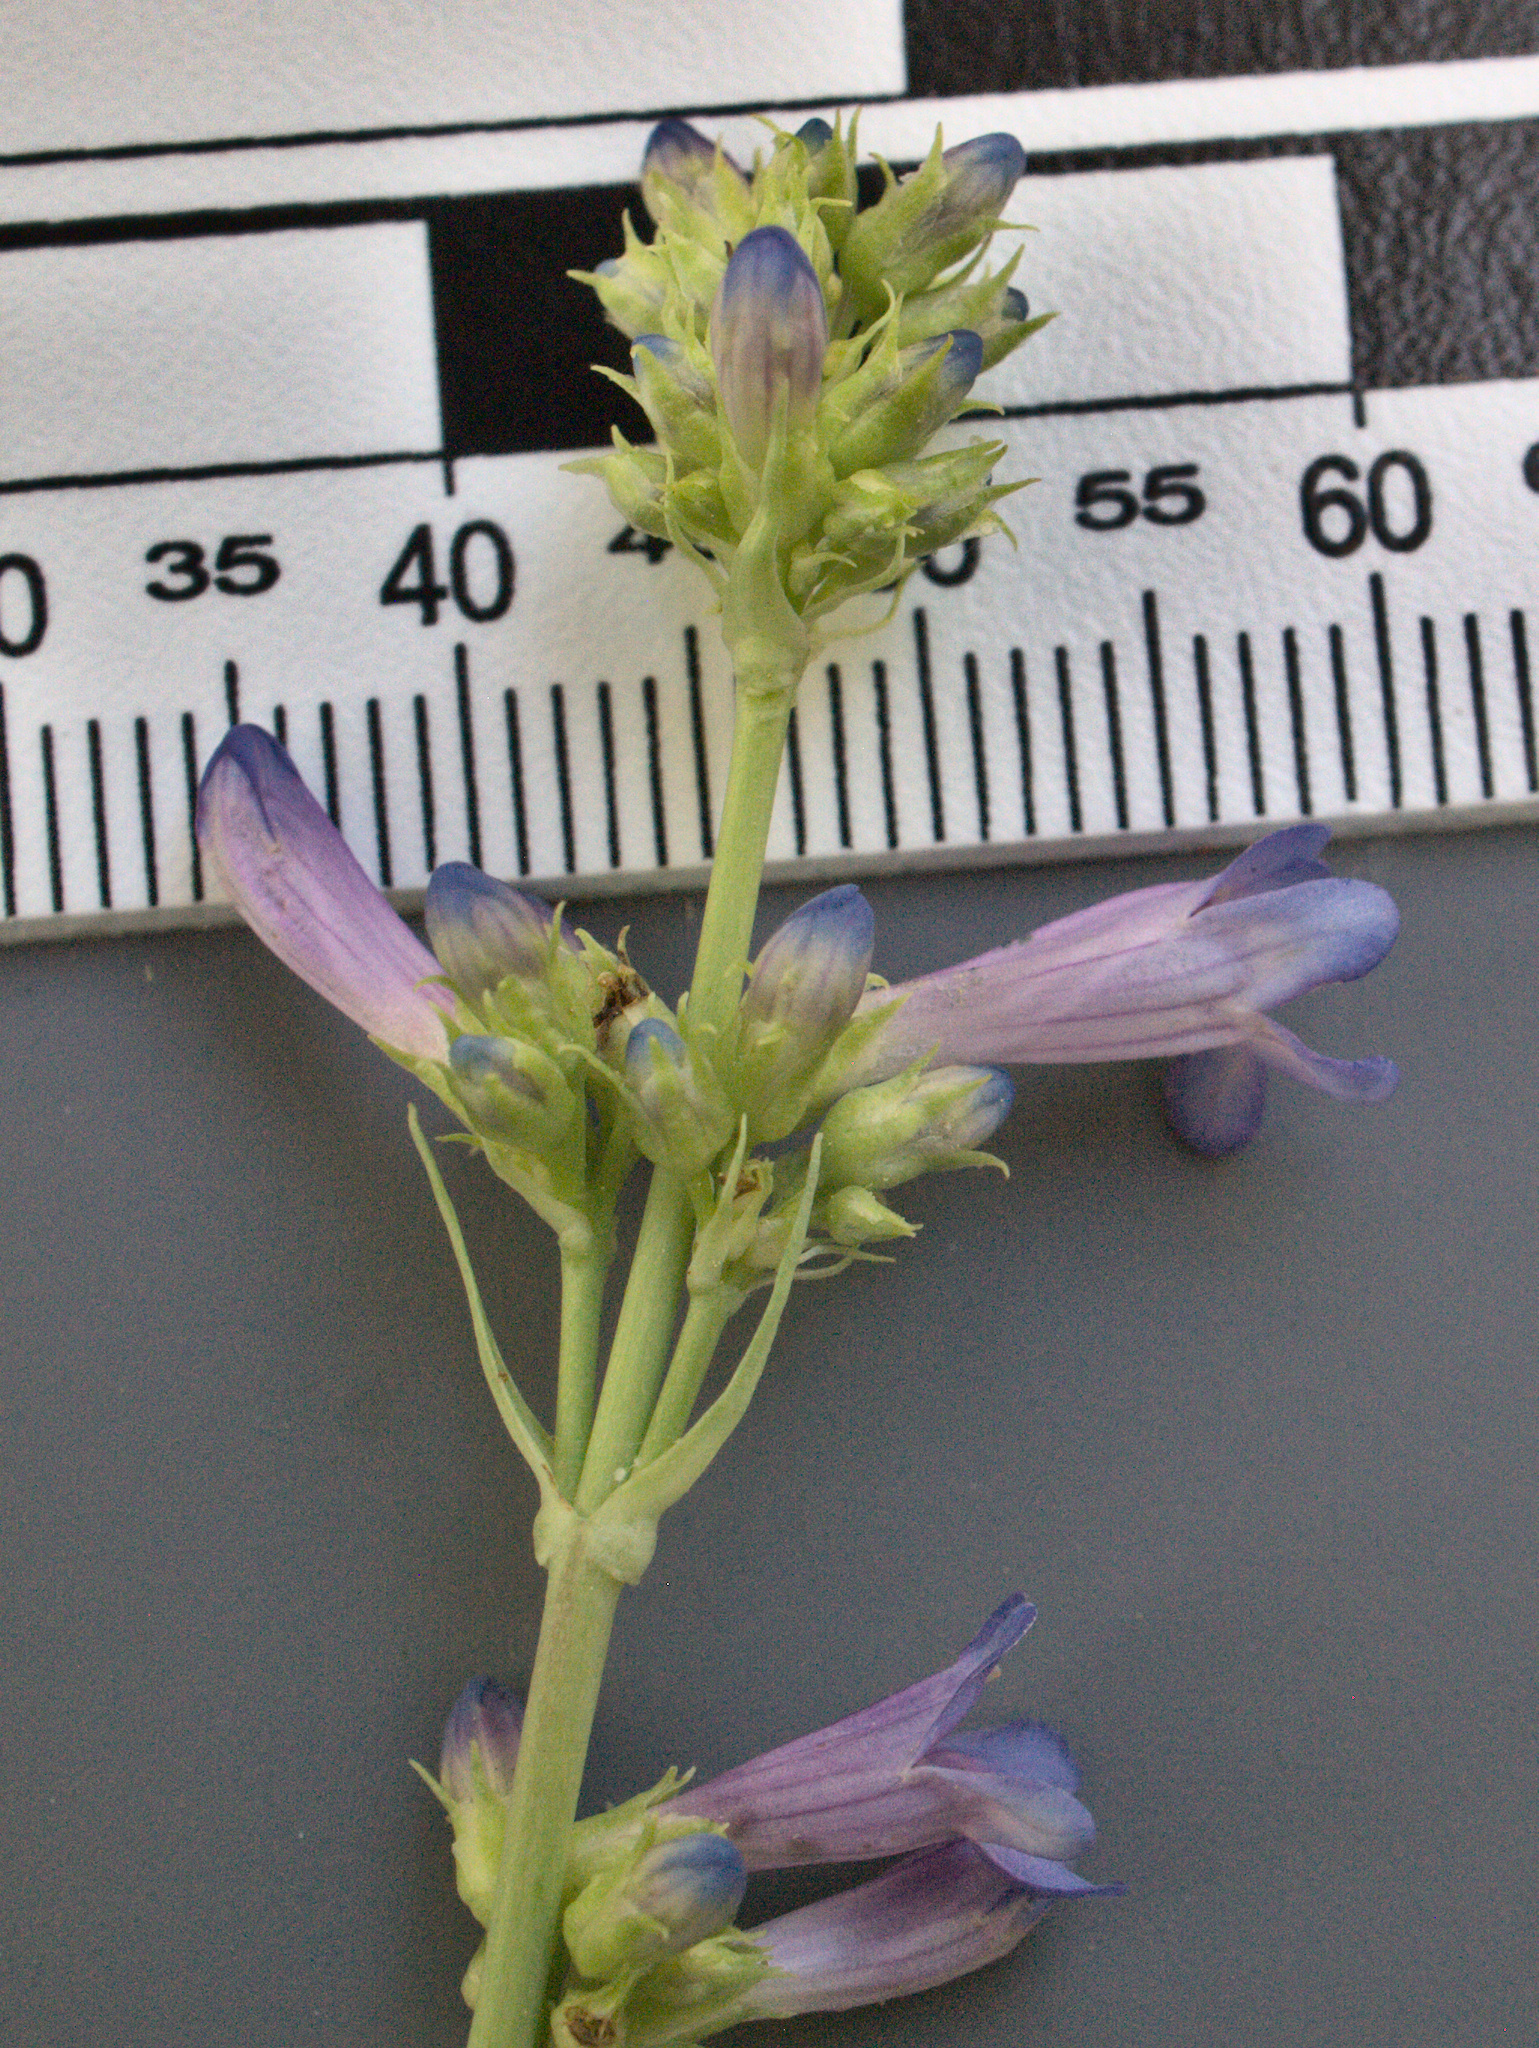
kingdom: Plantae
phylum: Tracheophyta
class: Magnoliopsida
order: Lamiales
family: Plantaginaceae
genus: Penstemon
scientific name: Penstemon euglaucus
